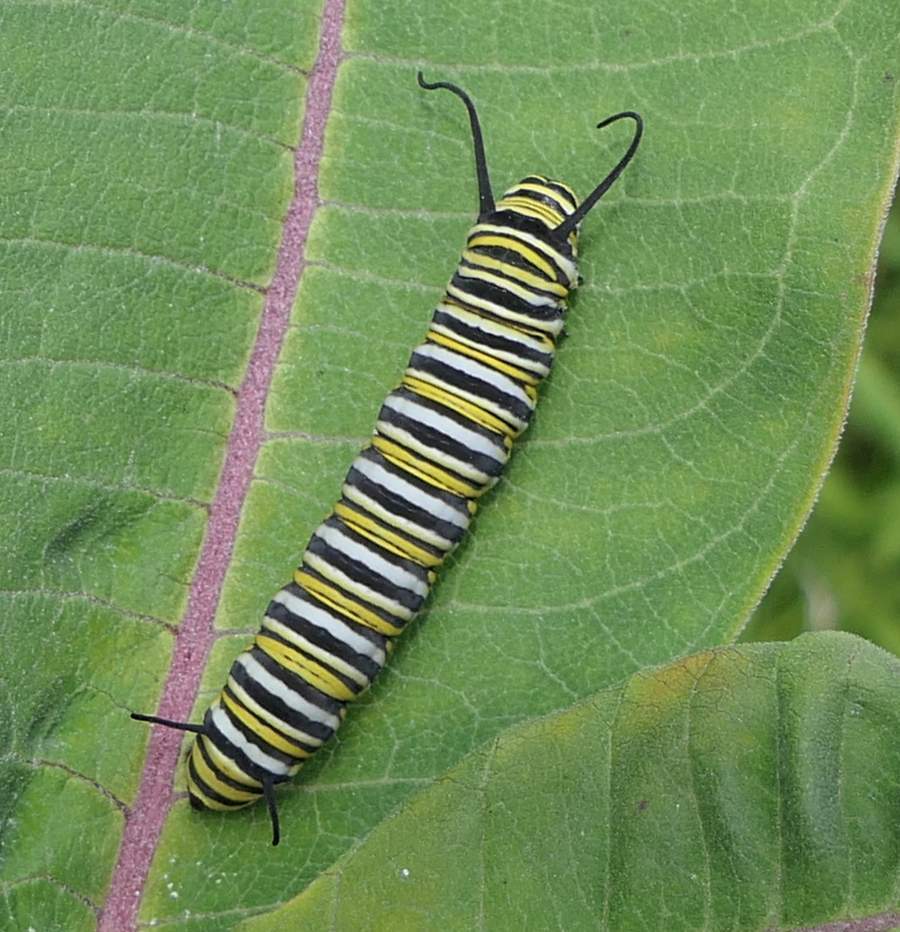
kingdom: Animalia
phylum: Arthropoda
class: Insecta
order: Lepidoptera
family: Nymphalidae
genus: Danaus
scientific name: Danaus plexippus
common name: Monarch
